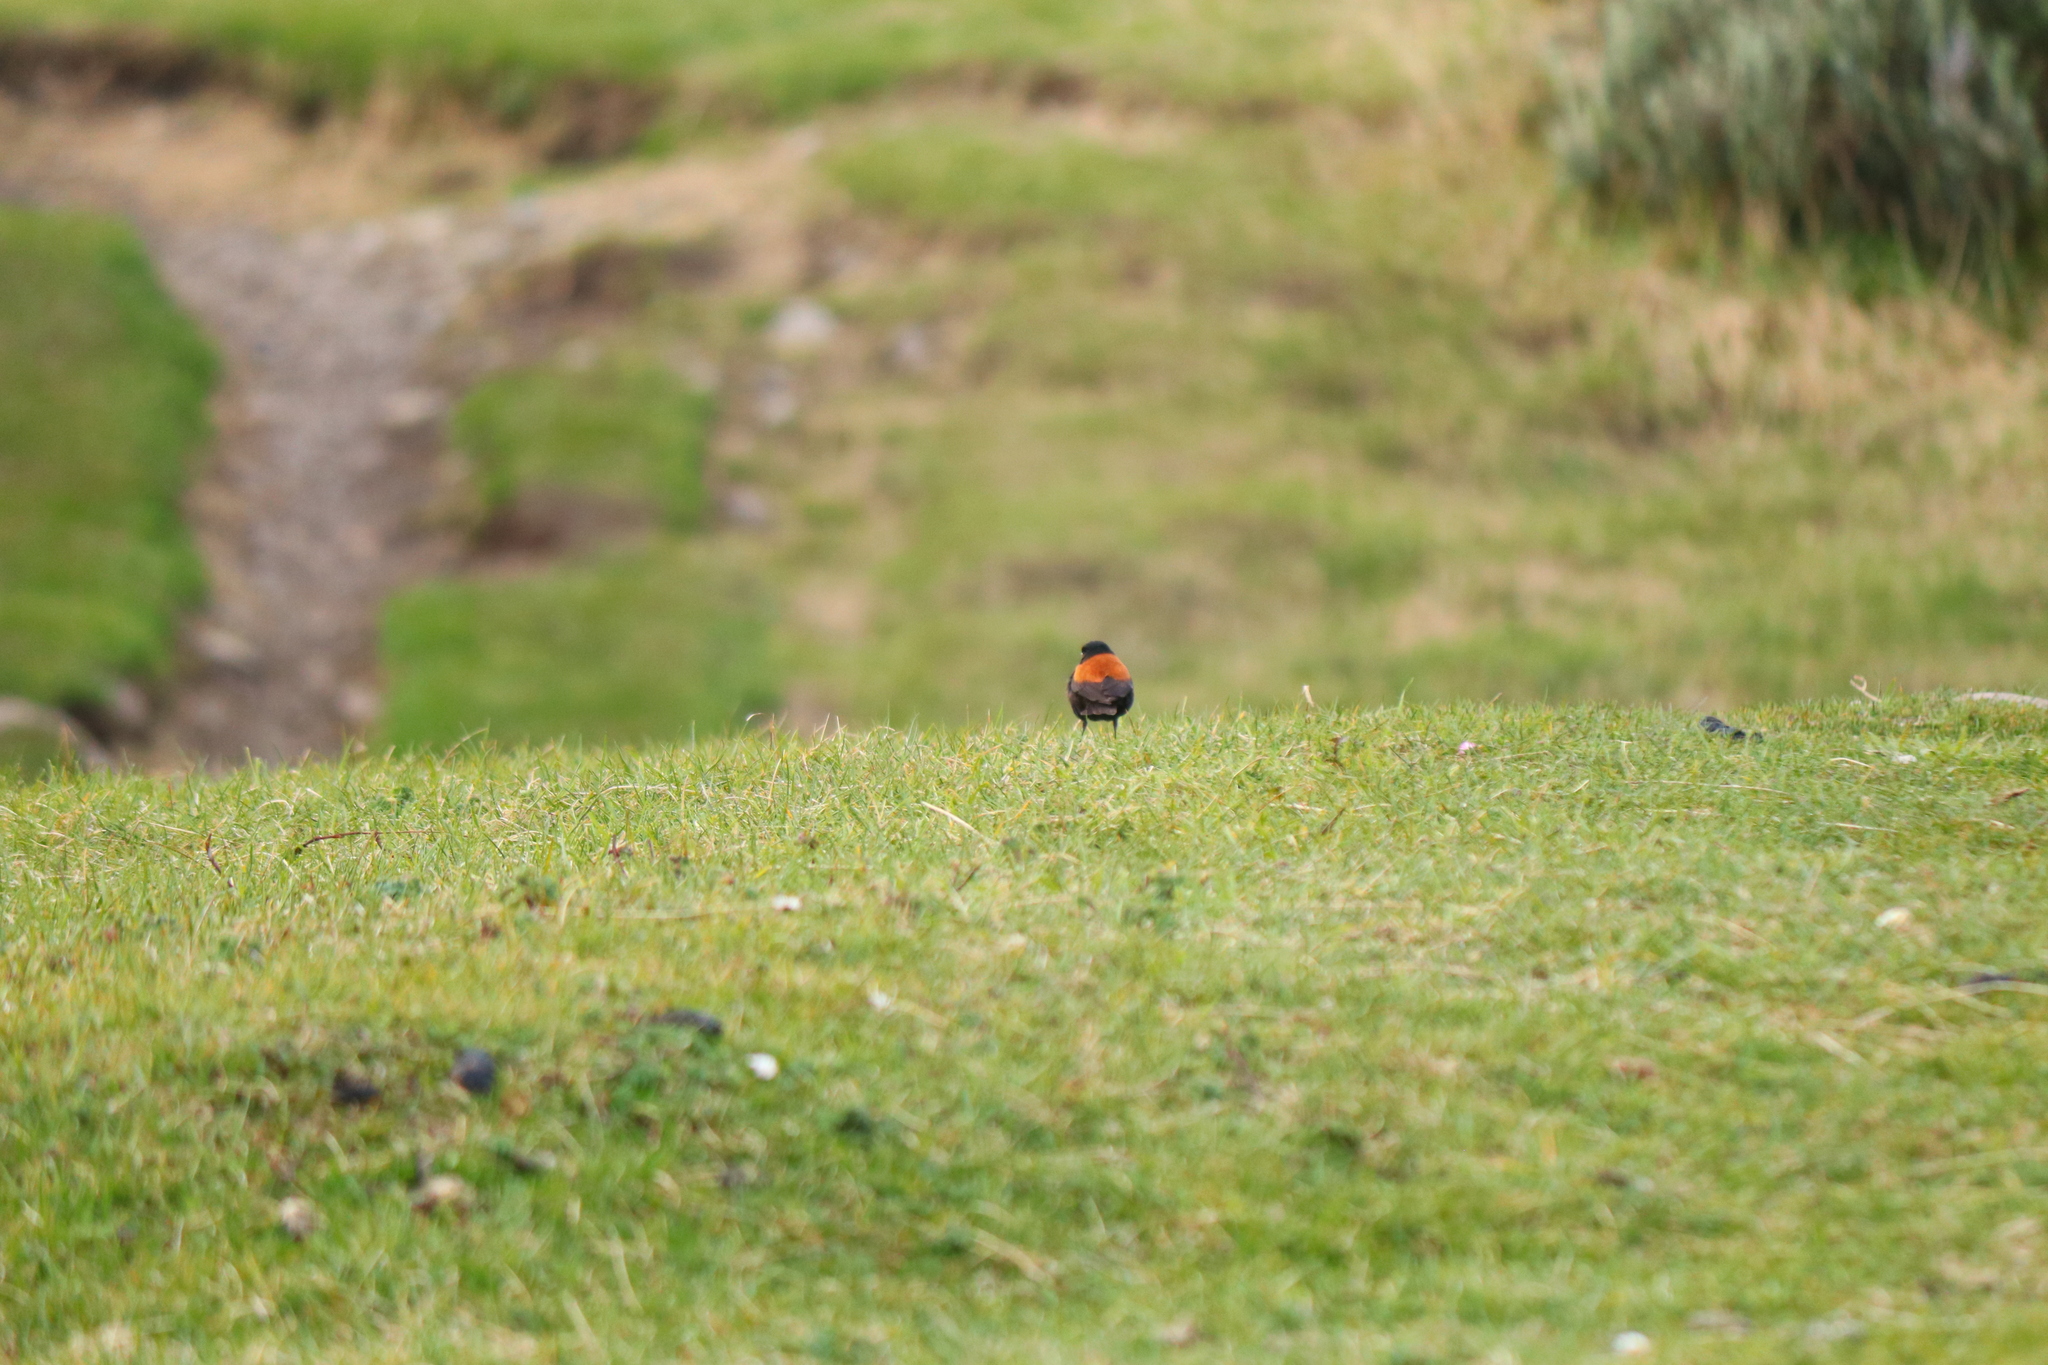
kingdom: Animalia
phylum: Chordata
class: Aves
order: Passeriformes
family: Tyrannidae
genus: Lessonia
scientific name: Lessonia rufa
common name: Austral negrito
